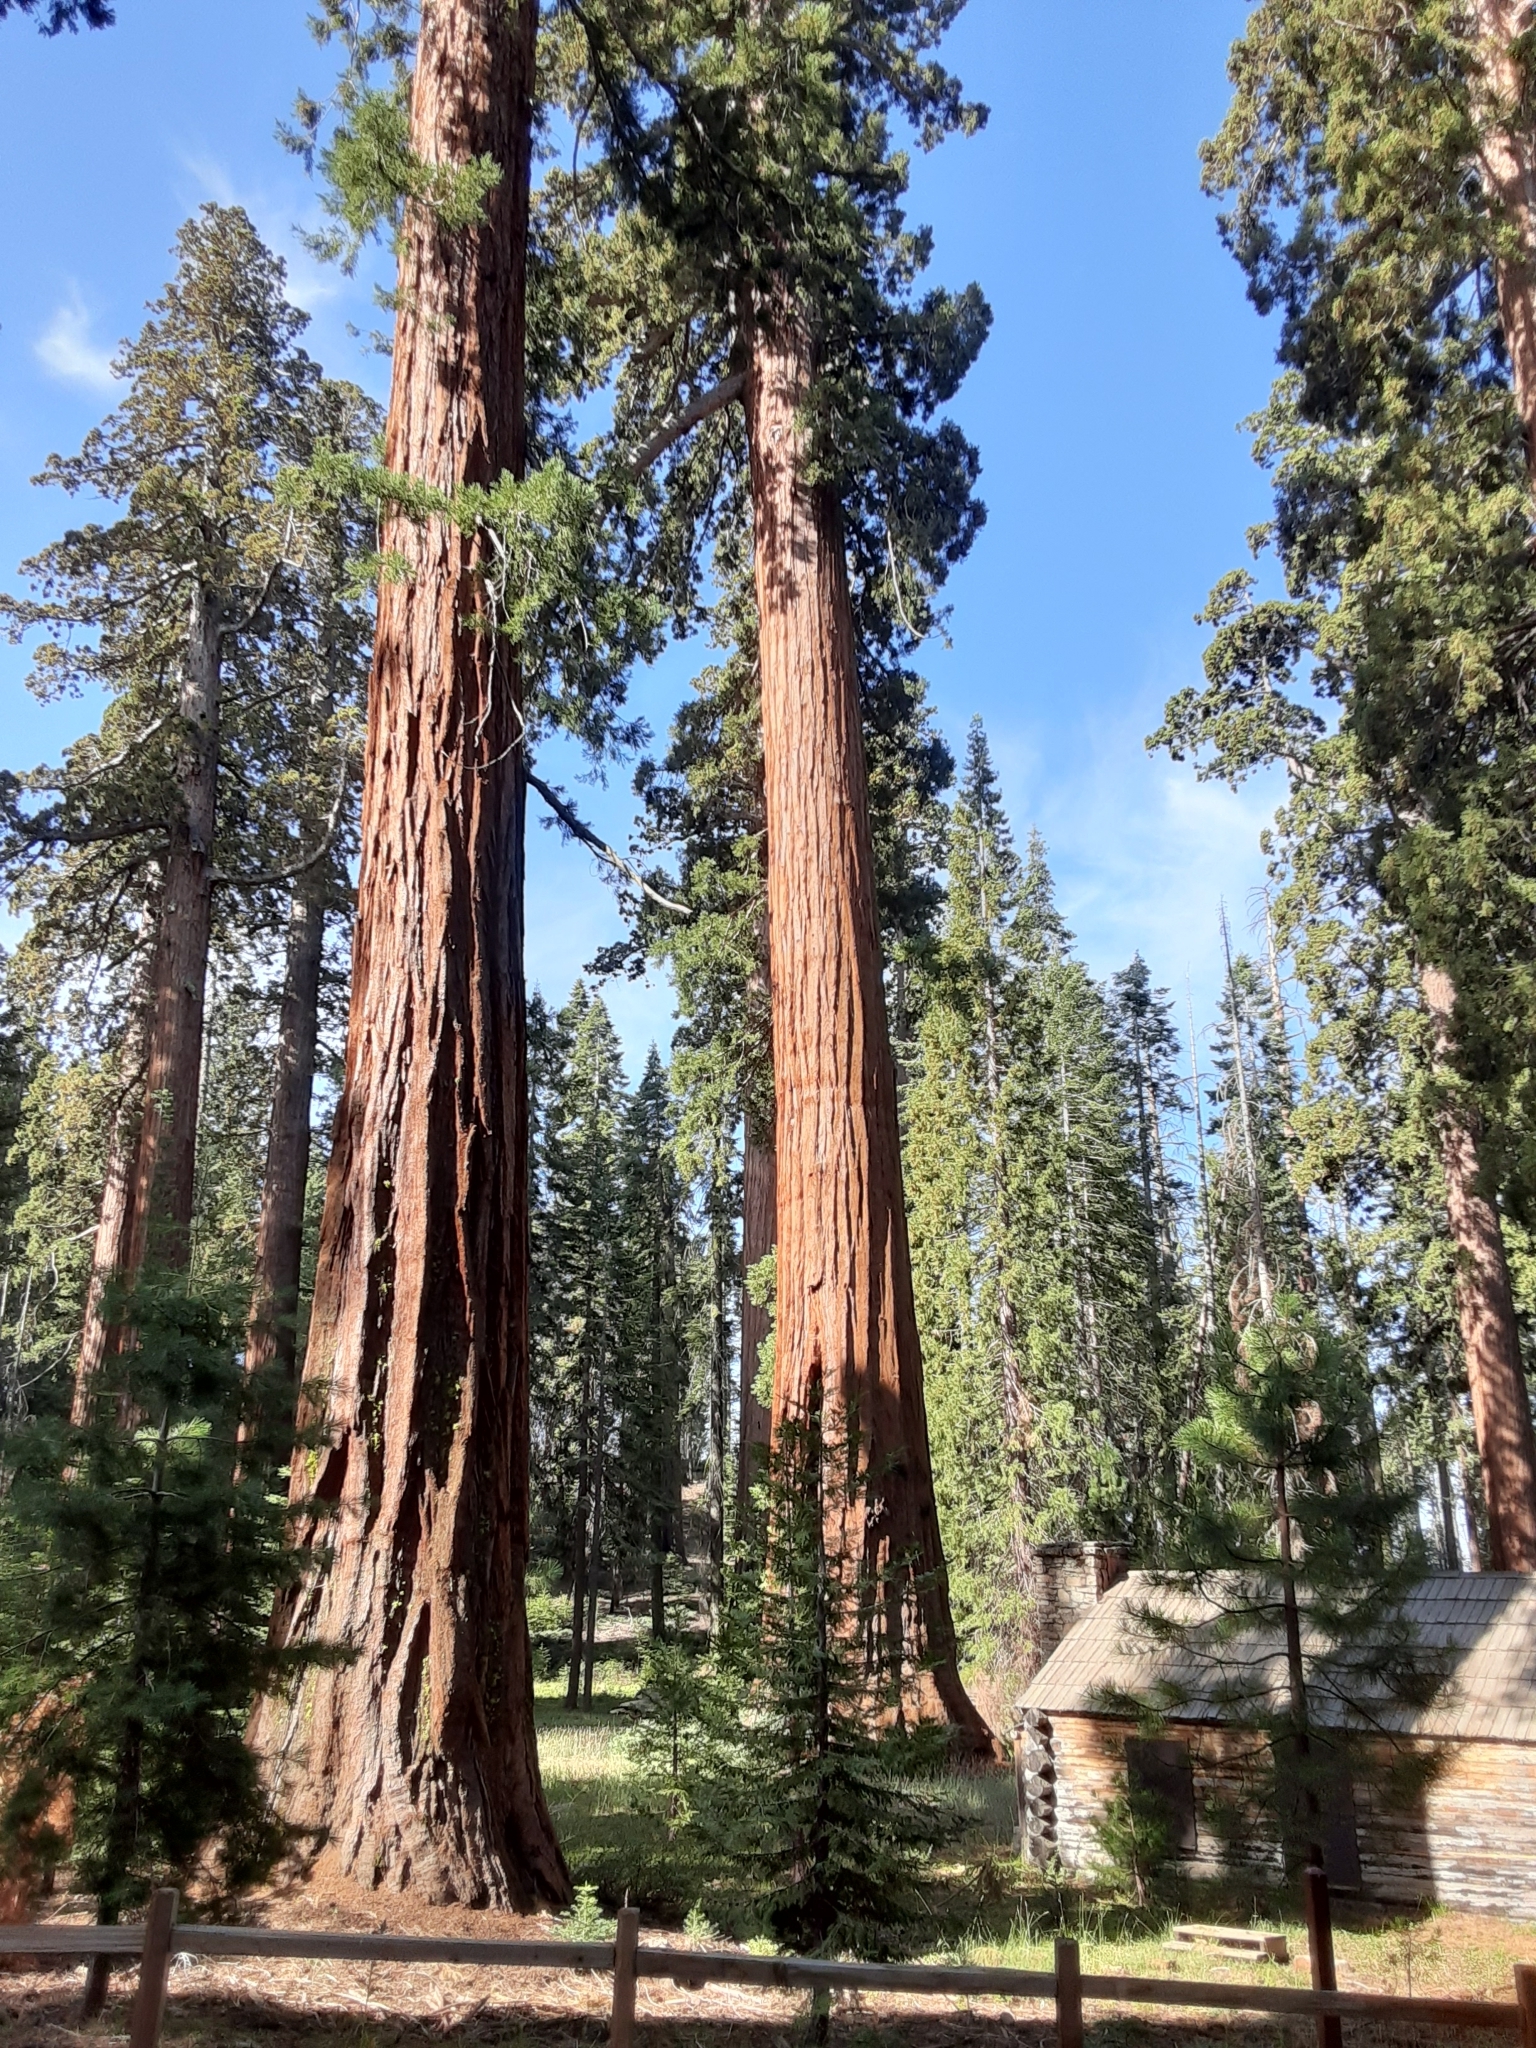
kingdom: Plantae
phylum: Tracheophyta
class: Pinopsida
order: Pinales
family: Cupressaceae
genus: Sequoiadendron
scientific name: Sequoiadendron giganteum
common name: Wellingtonia
